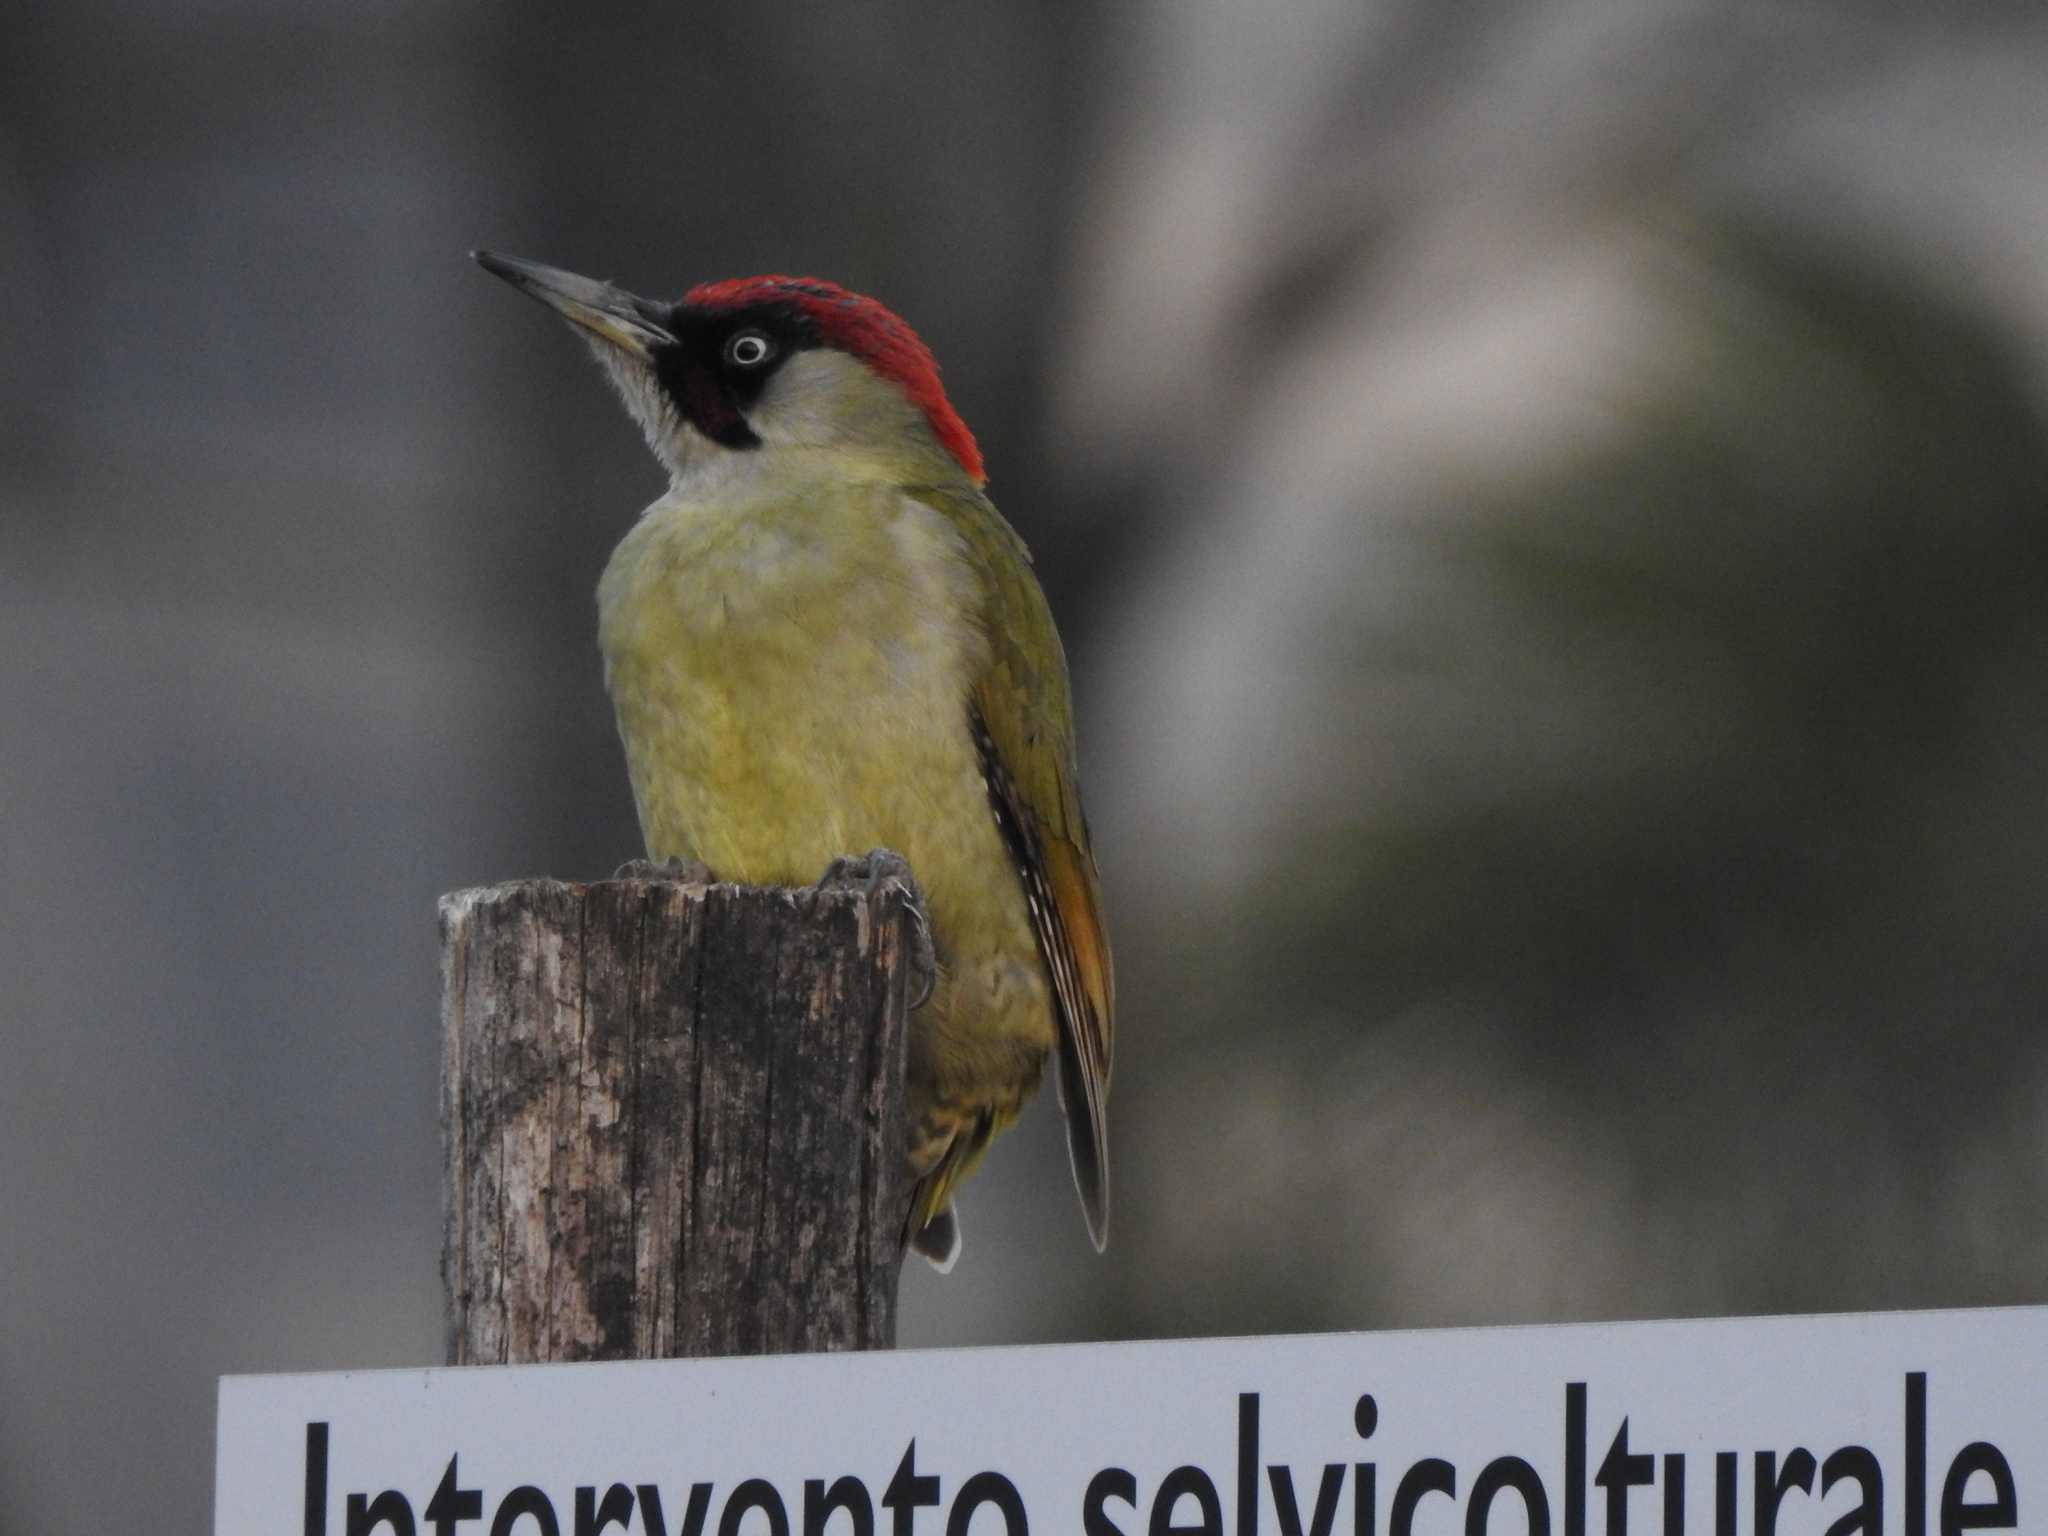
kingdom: Animalia
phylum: Chordata
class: Aves
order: Piciformes
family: Picidae
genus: Picus
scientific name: Picus viridis
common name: European green woodpecker
